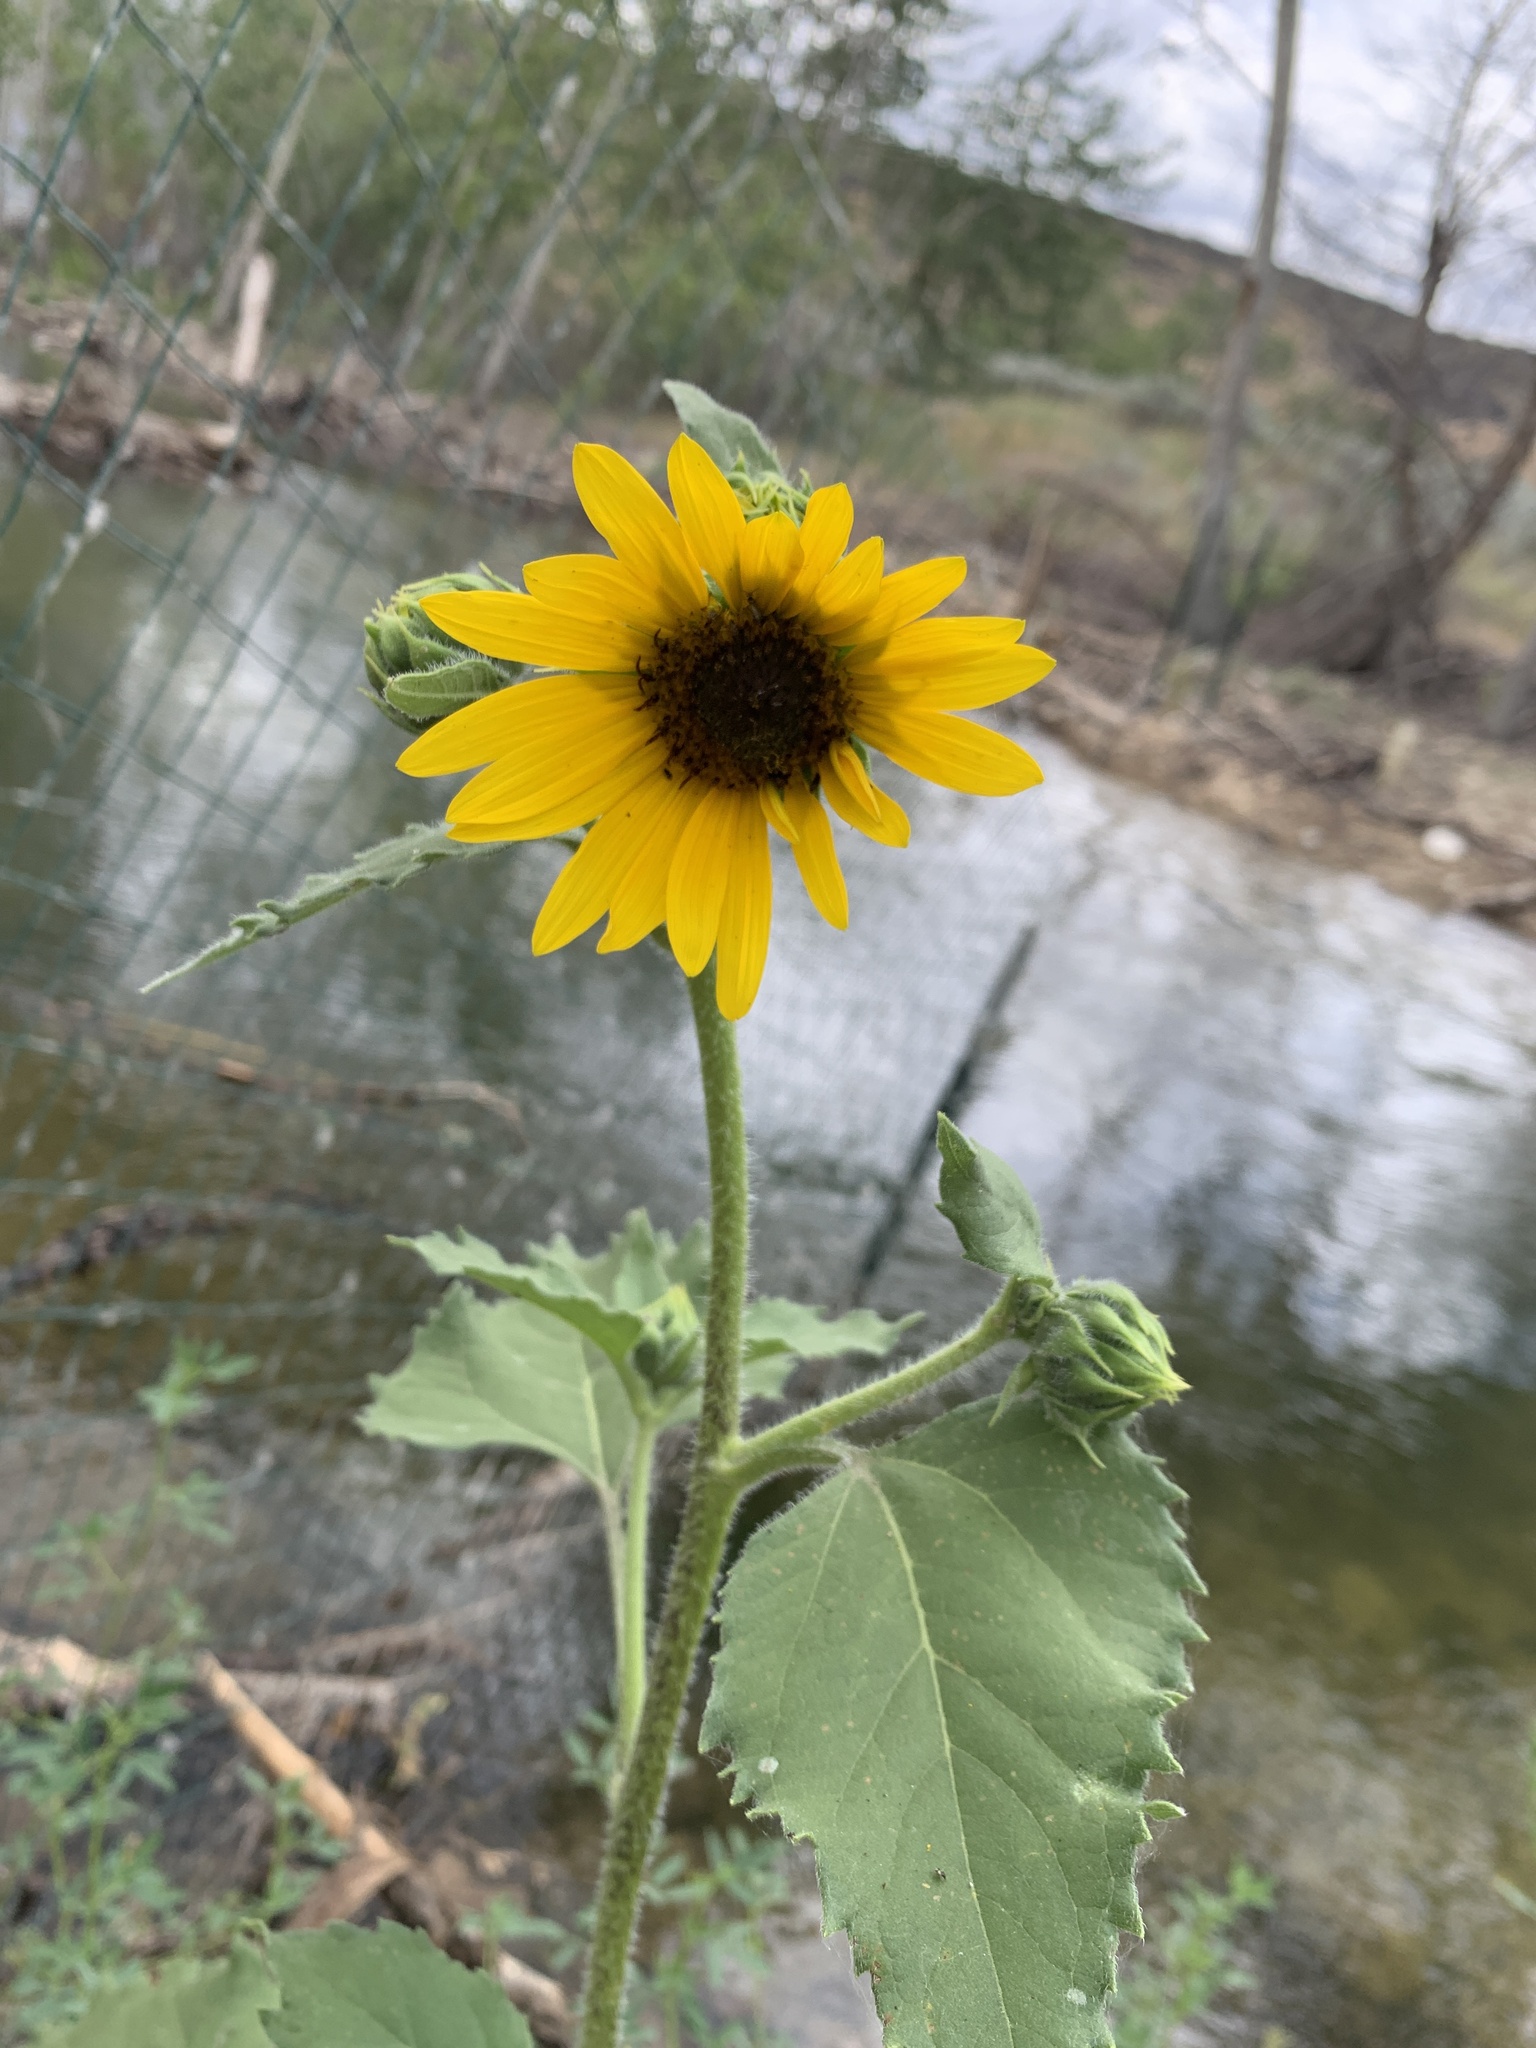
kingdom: Plantae
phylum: Tracheophyta
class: Magnoliopsida
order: Asterales
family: Asteraceae
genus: Helianthus
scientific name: Helianthus annuus
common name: Sunflower
